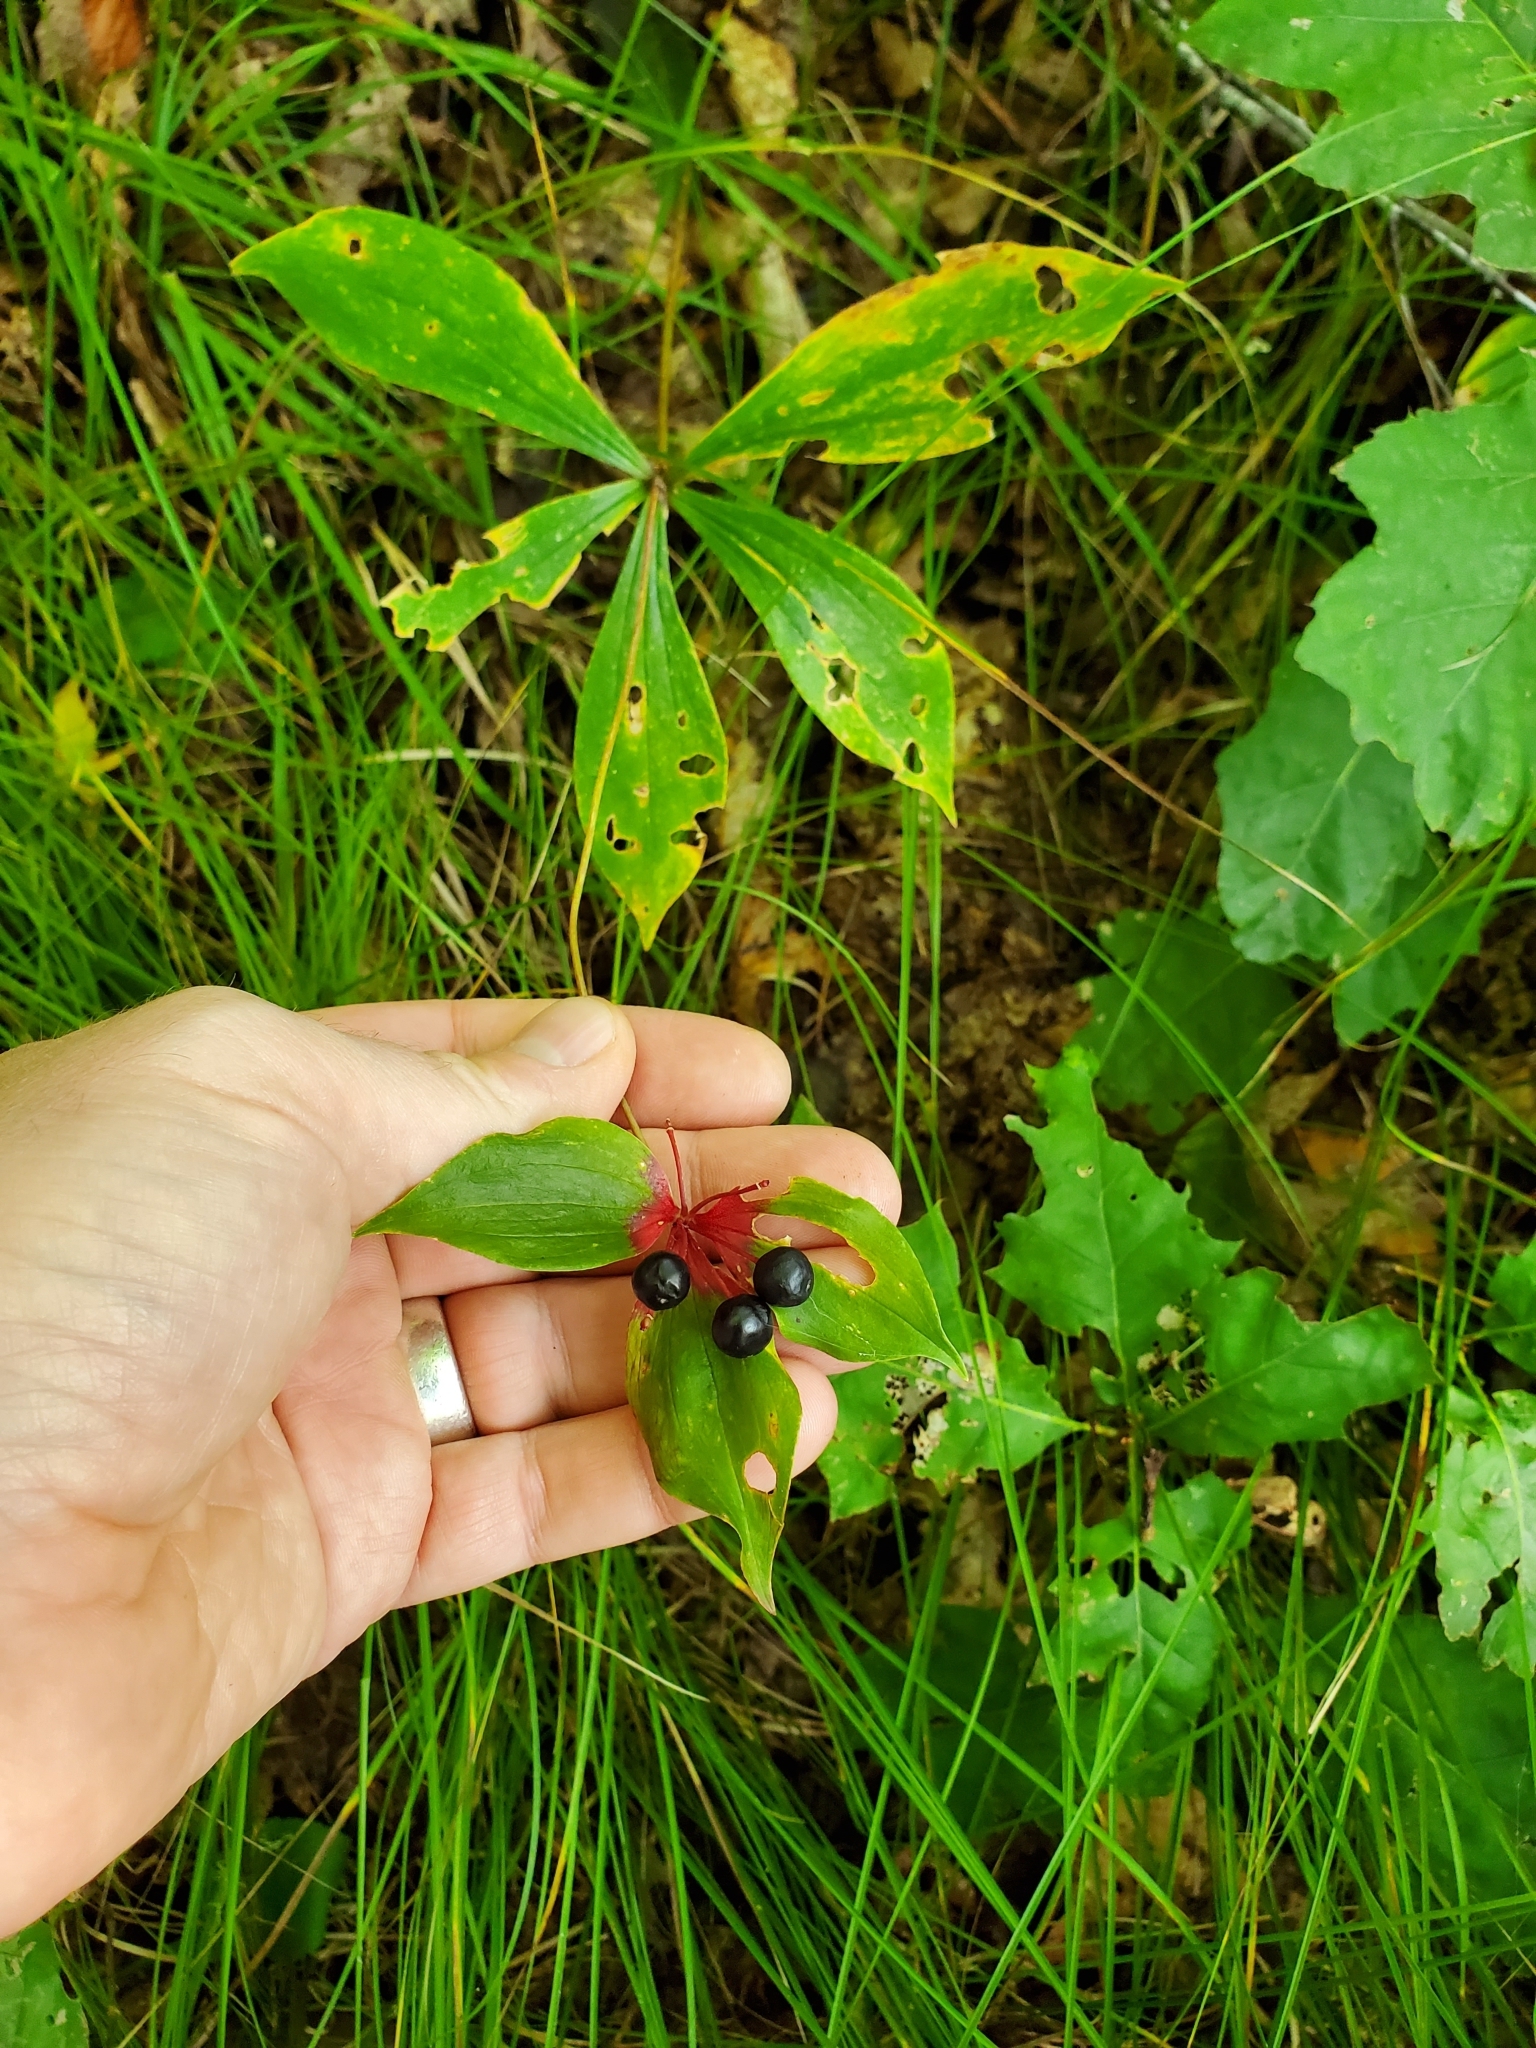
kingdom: Plantae
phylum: Tracheophyta
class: Liliopsida
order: Liliales
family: Liliaceae
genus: Medeola
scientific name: Medeola virginiana
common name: Indian cucumber-root
